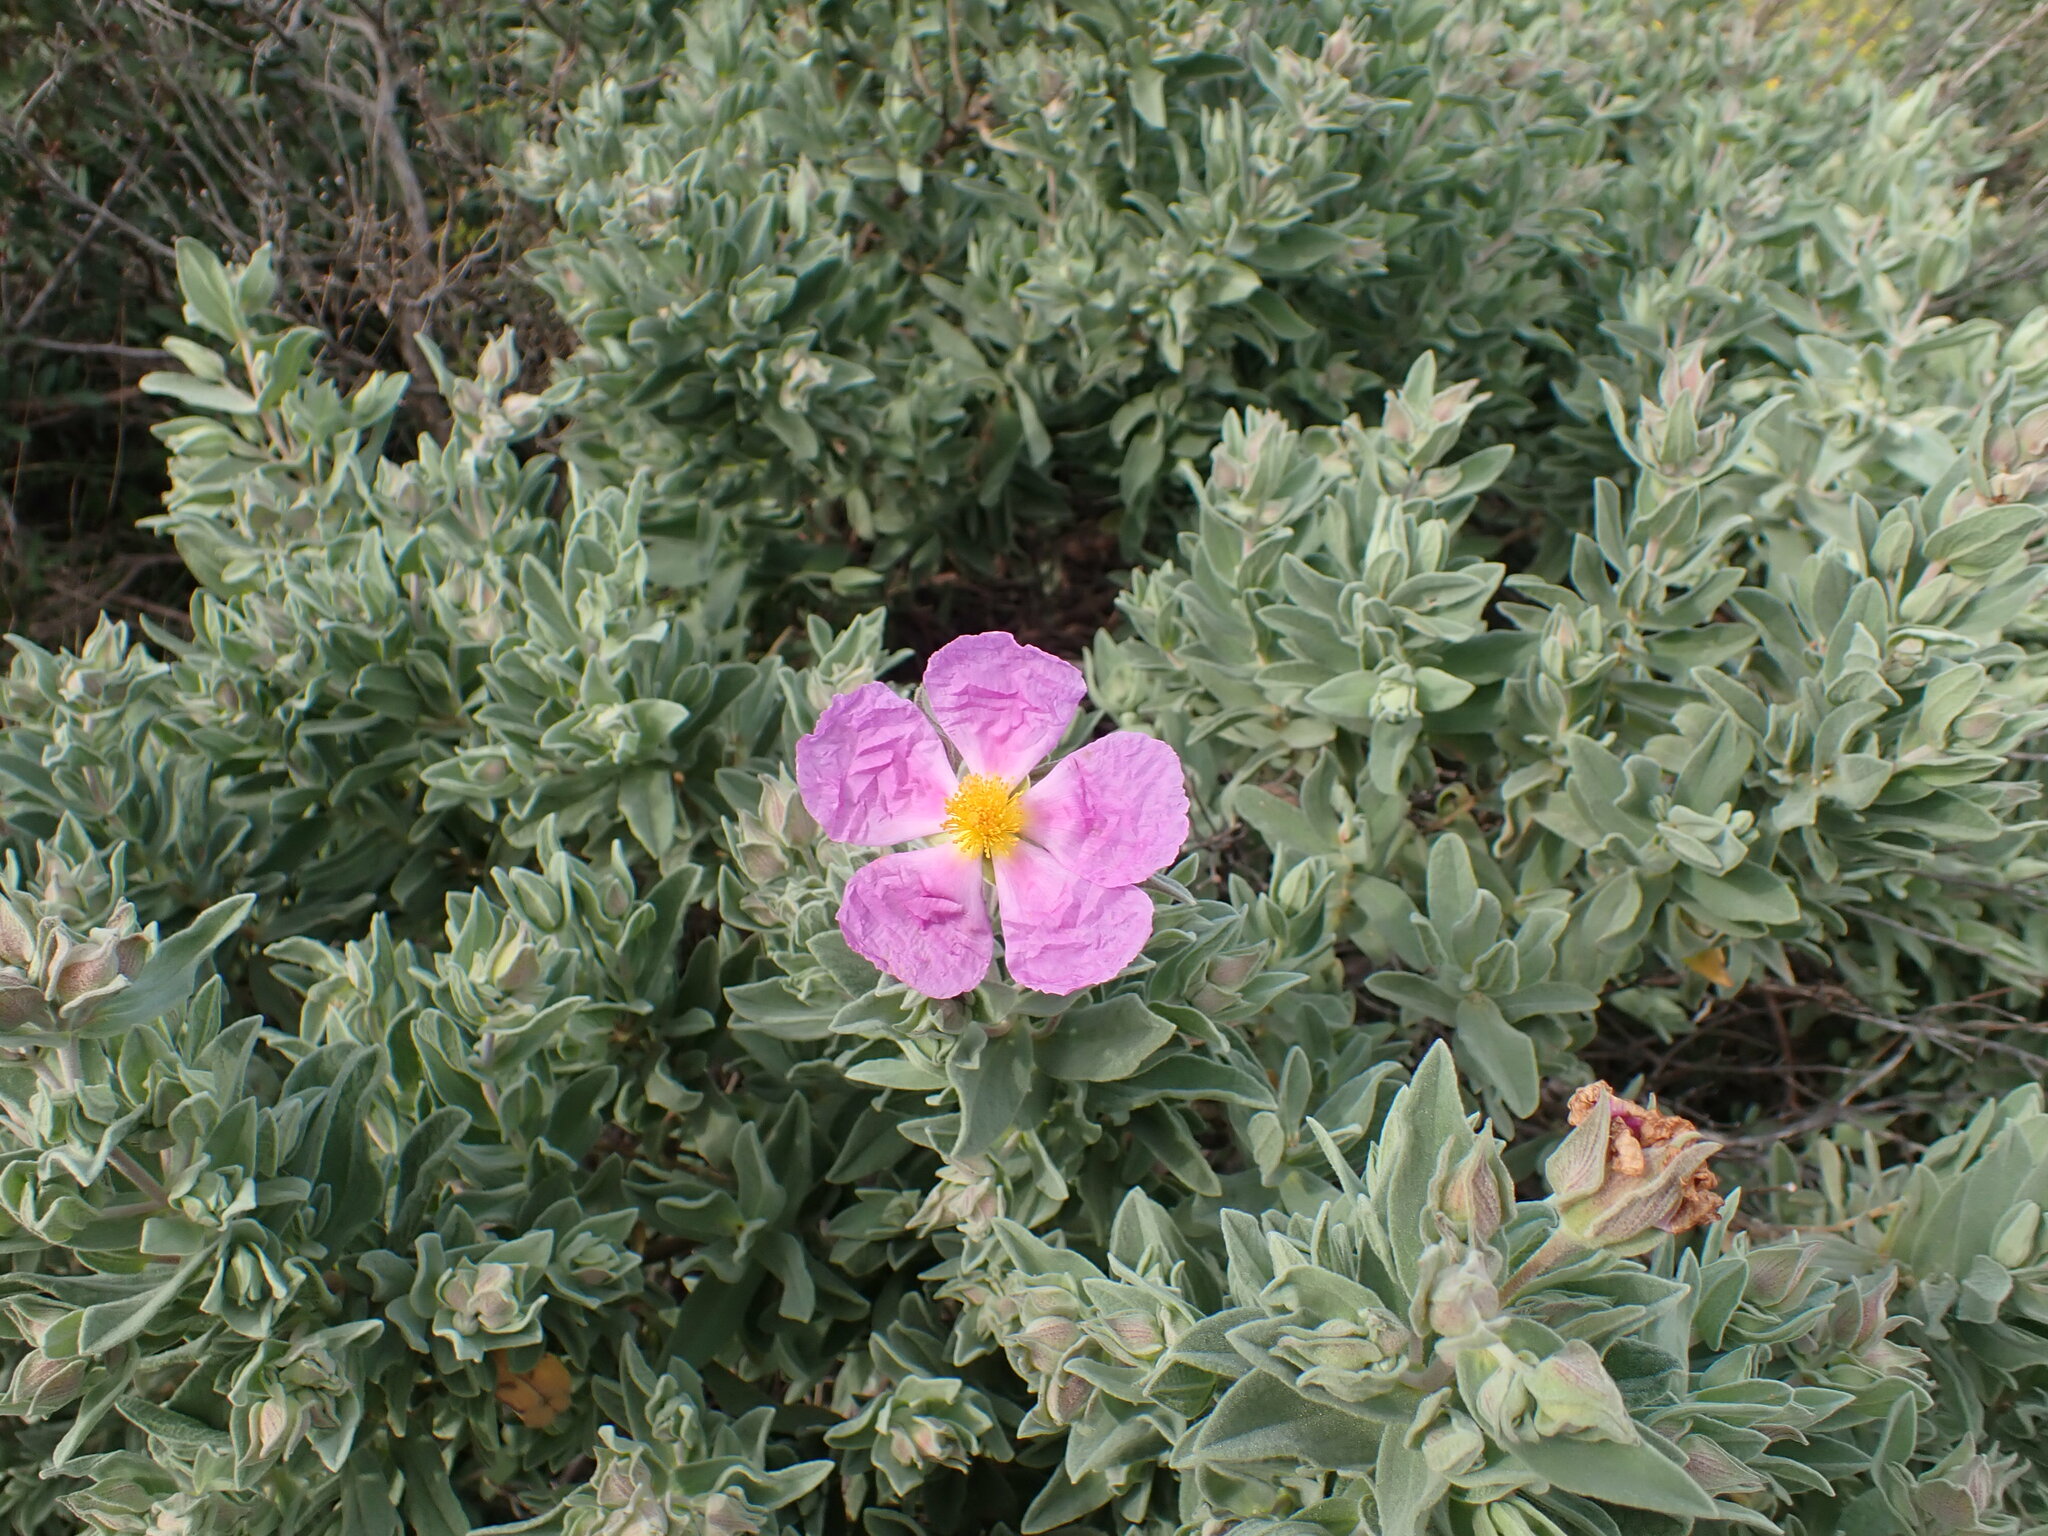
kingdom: Plantae
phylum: Tracheophyta
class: Magnoliopsida
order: Malvales
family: Cistaceae
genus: Cistus
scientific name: Cistus albidus
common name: White-leaf rock-rose
